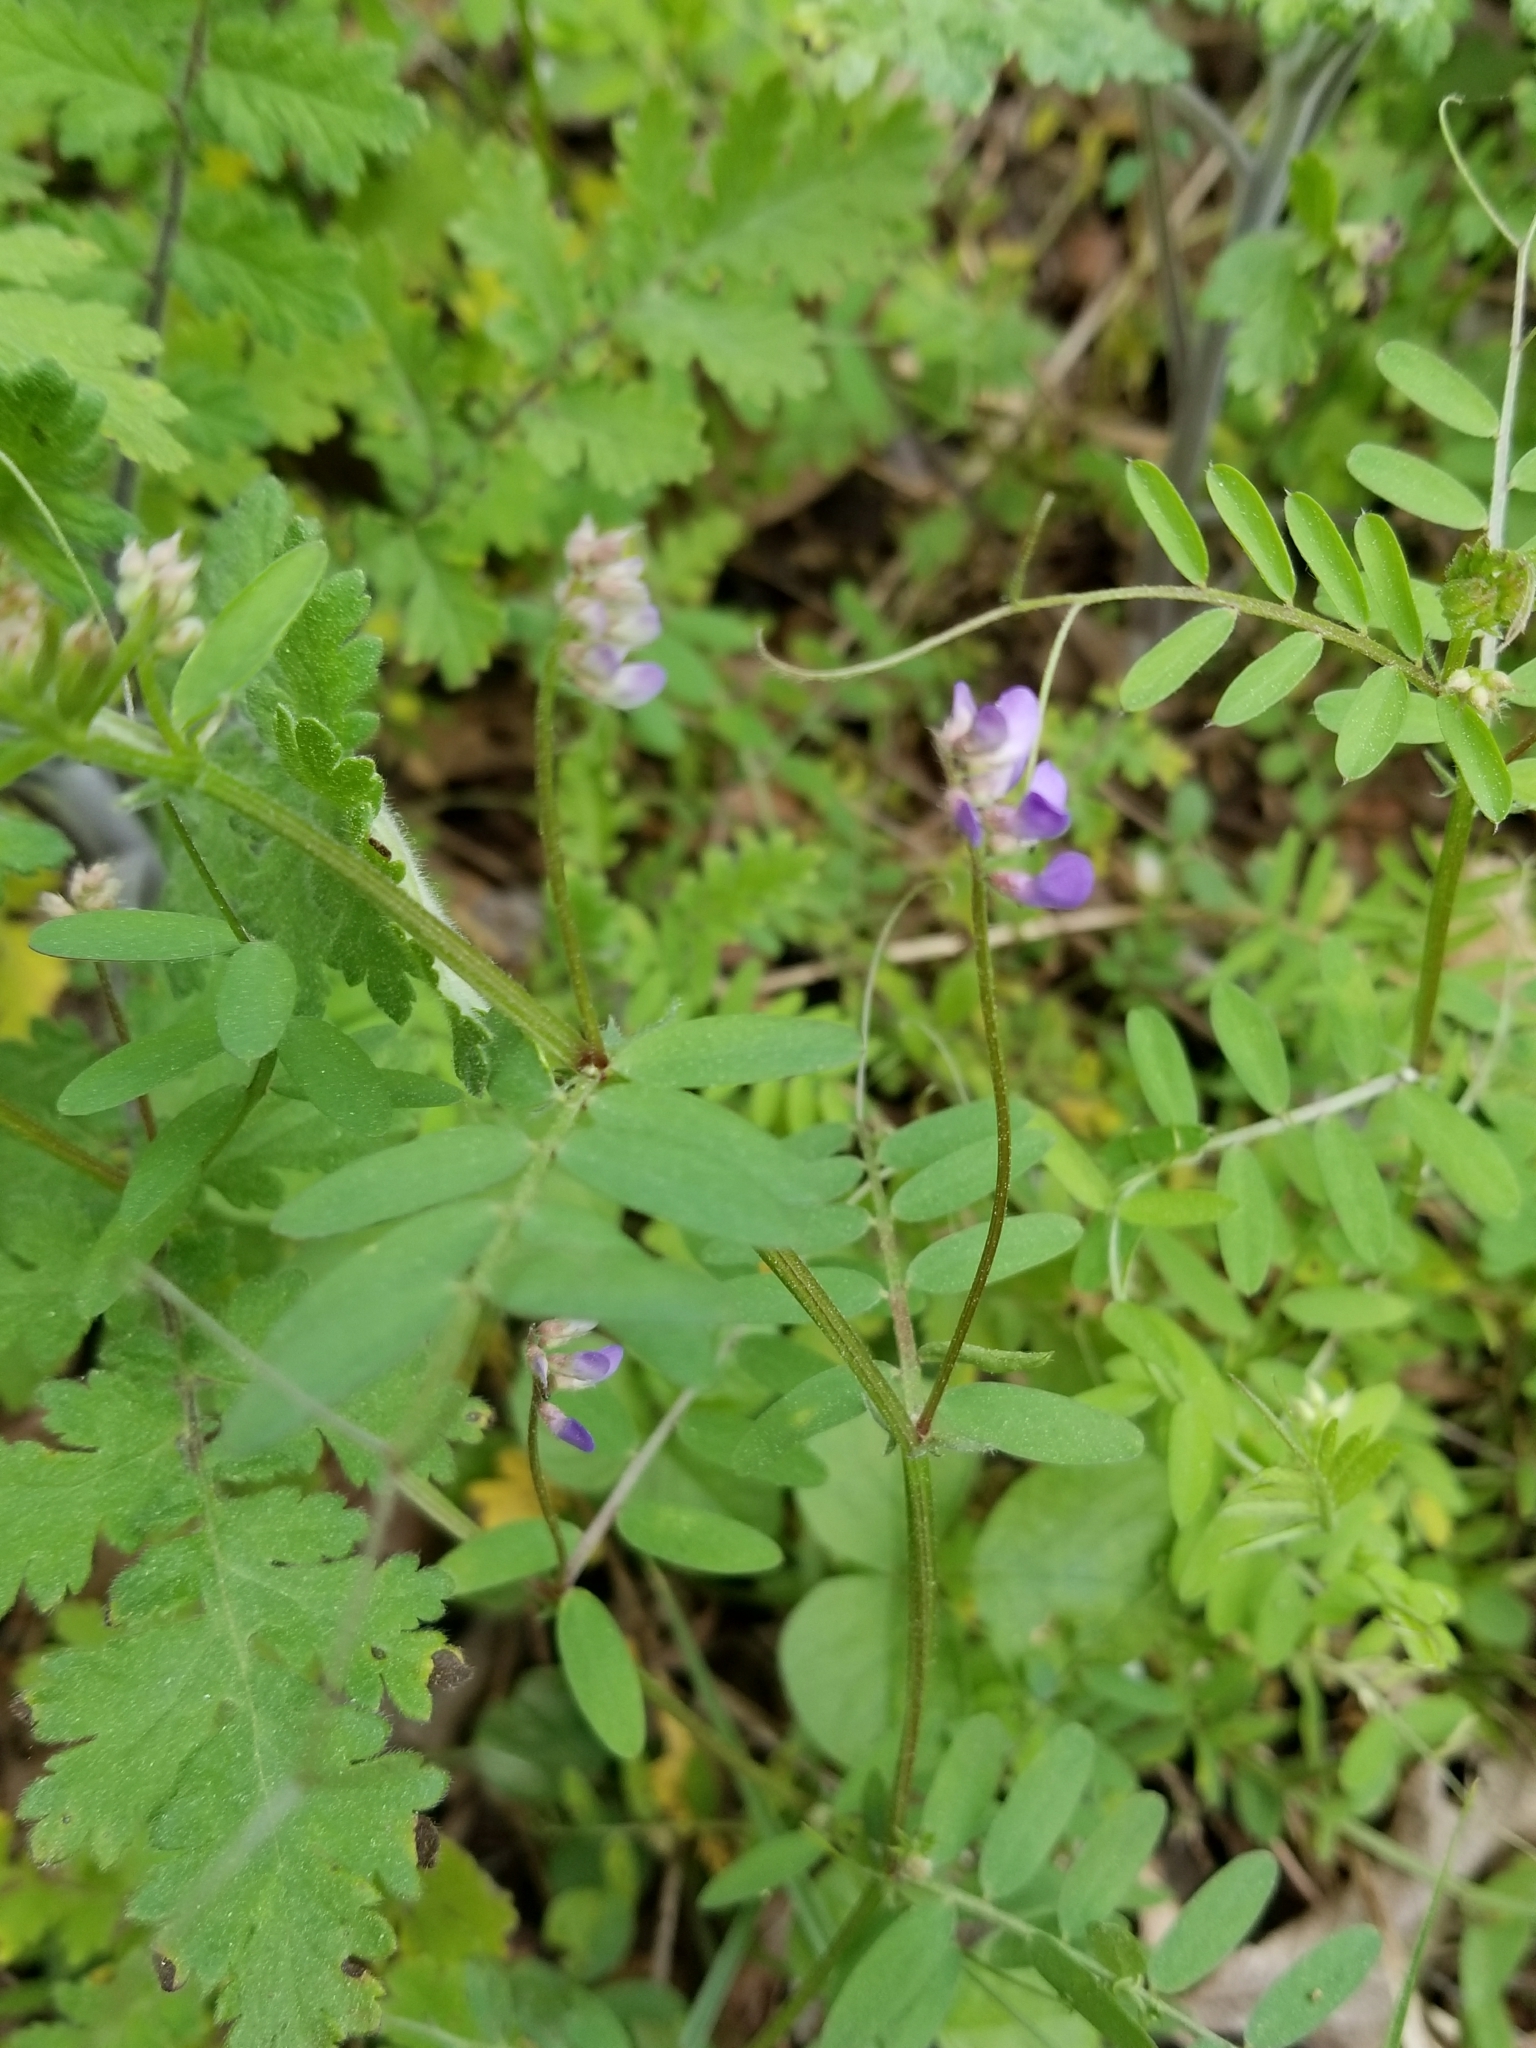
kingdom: Plantae
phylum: Tracheophyta
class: Magnoliopsida
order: Fabales
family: Fabaceae
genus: Vicia
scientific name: Vicia ludoviciana
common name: Louisiana vetch
